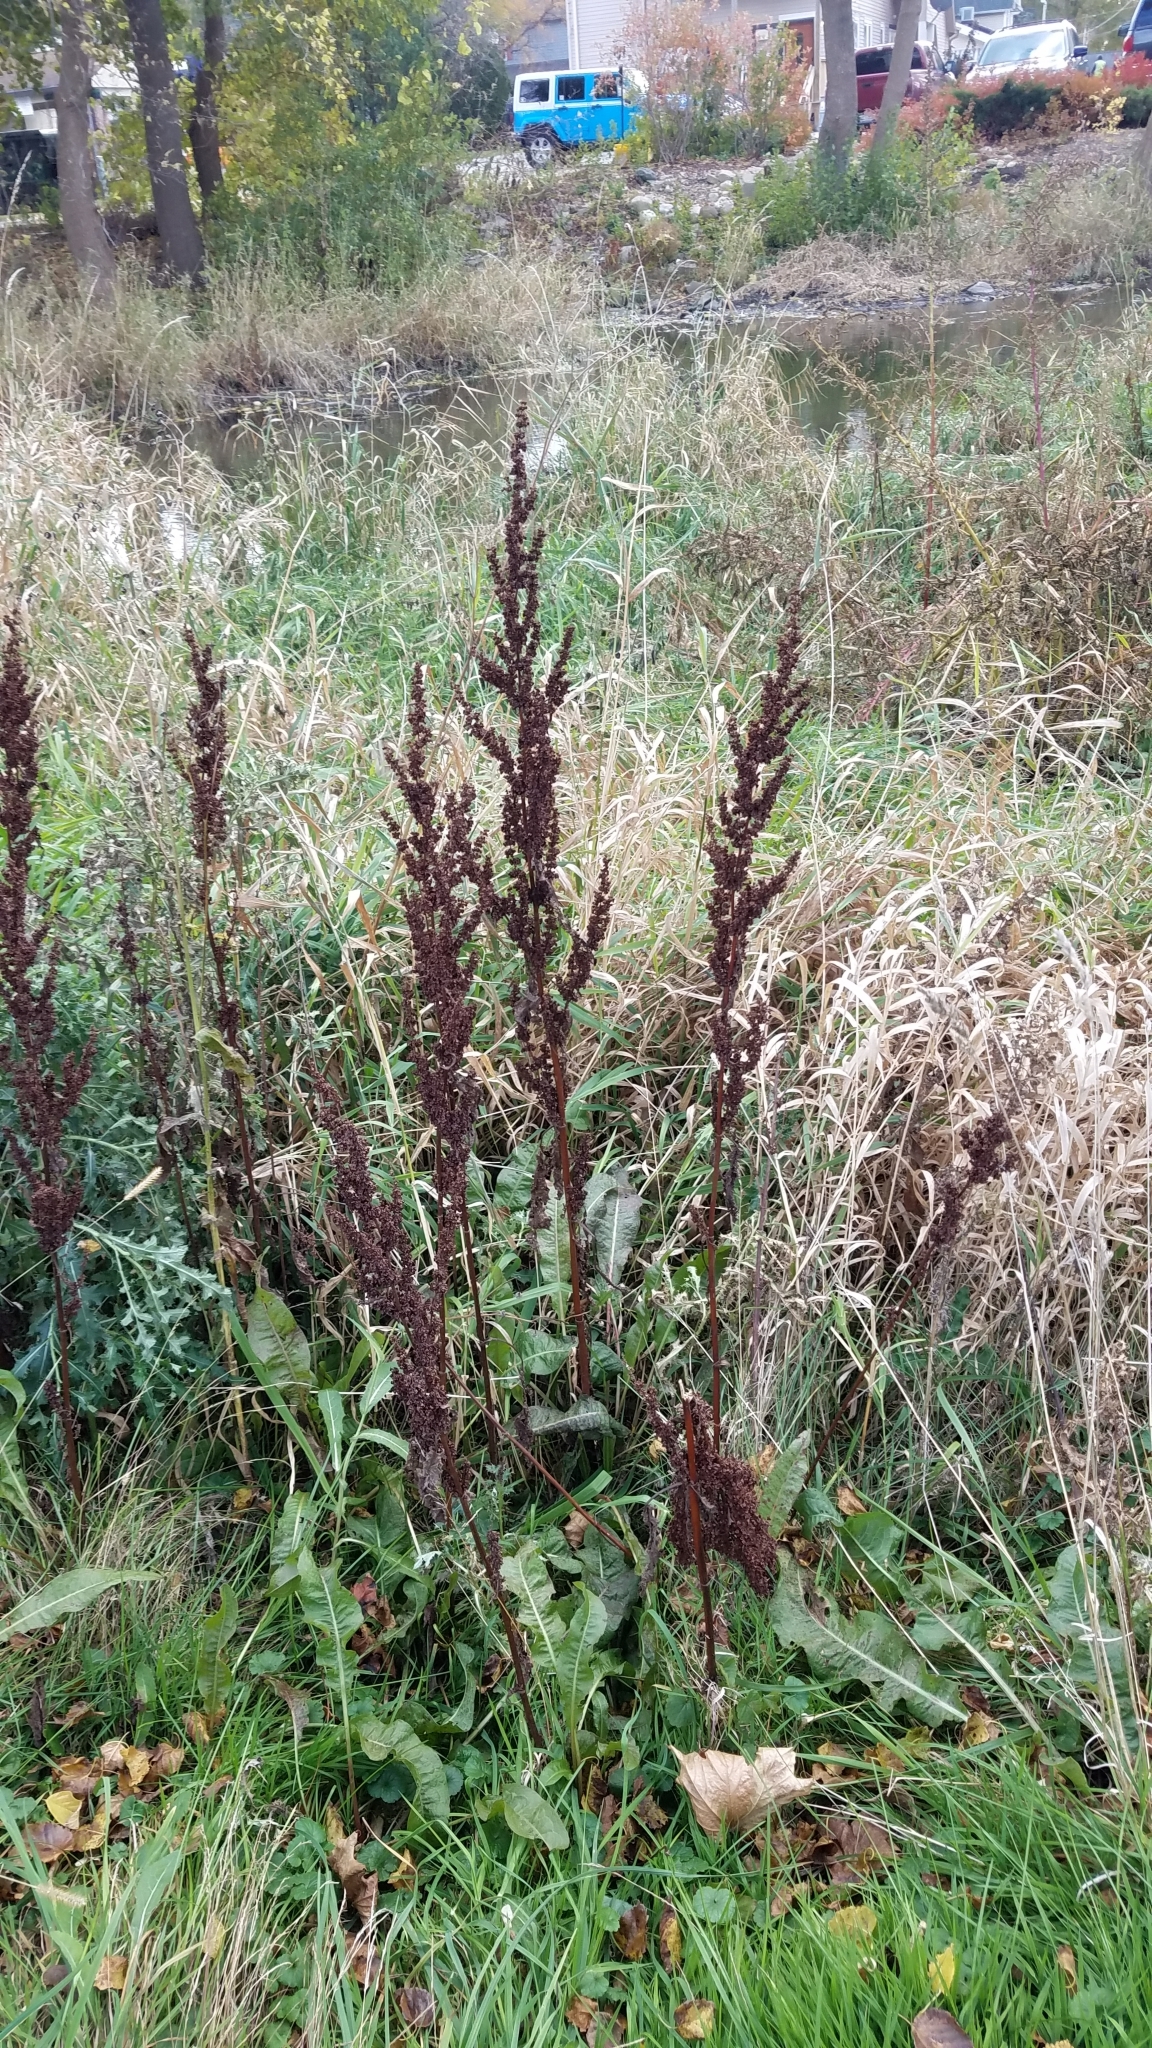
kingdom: Plantae
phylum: Tracheophyta
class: Magnoliopsida
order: Caryophyllales
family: Polygonaceae
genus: Rumex
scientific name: Rumex crispus
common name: Curled dock
